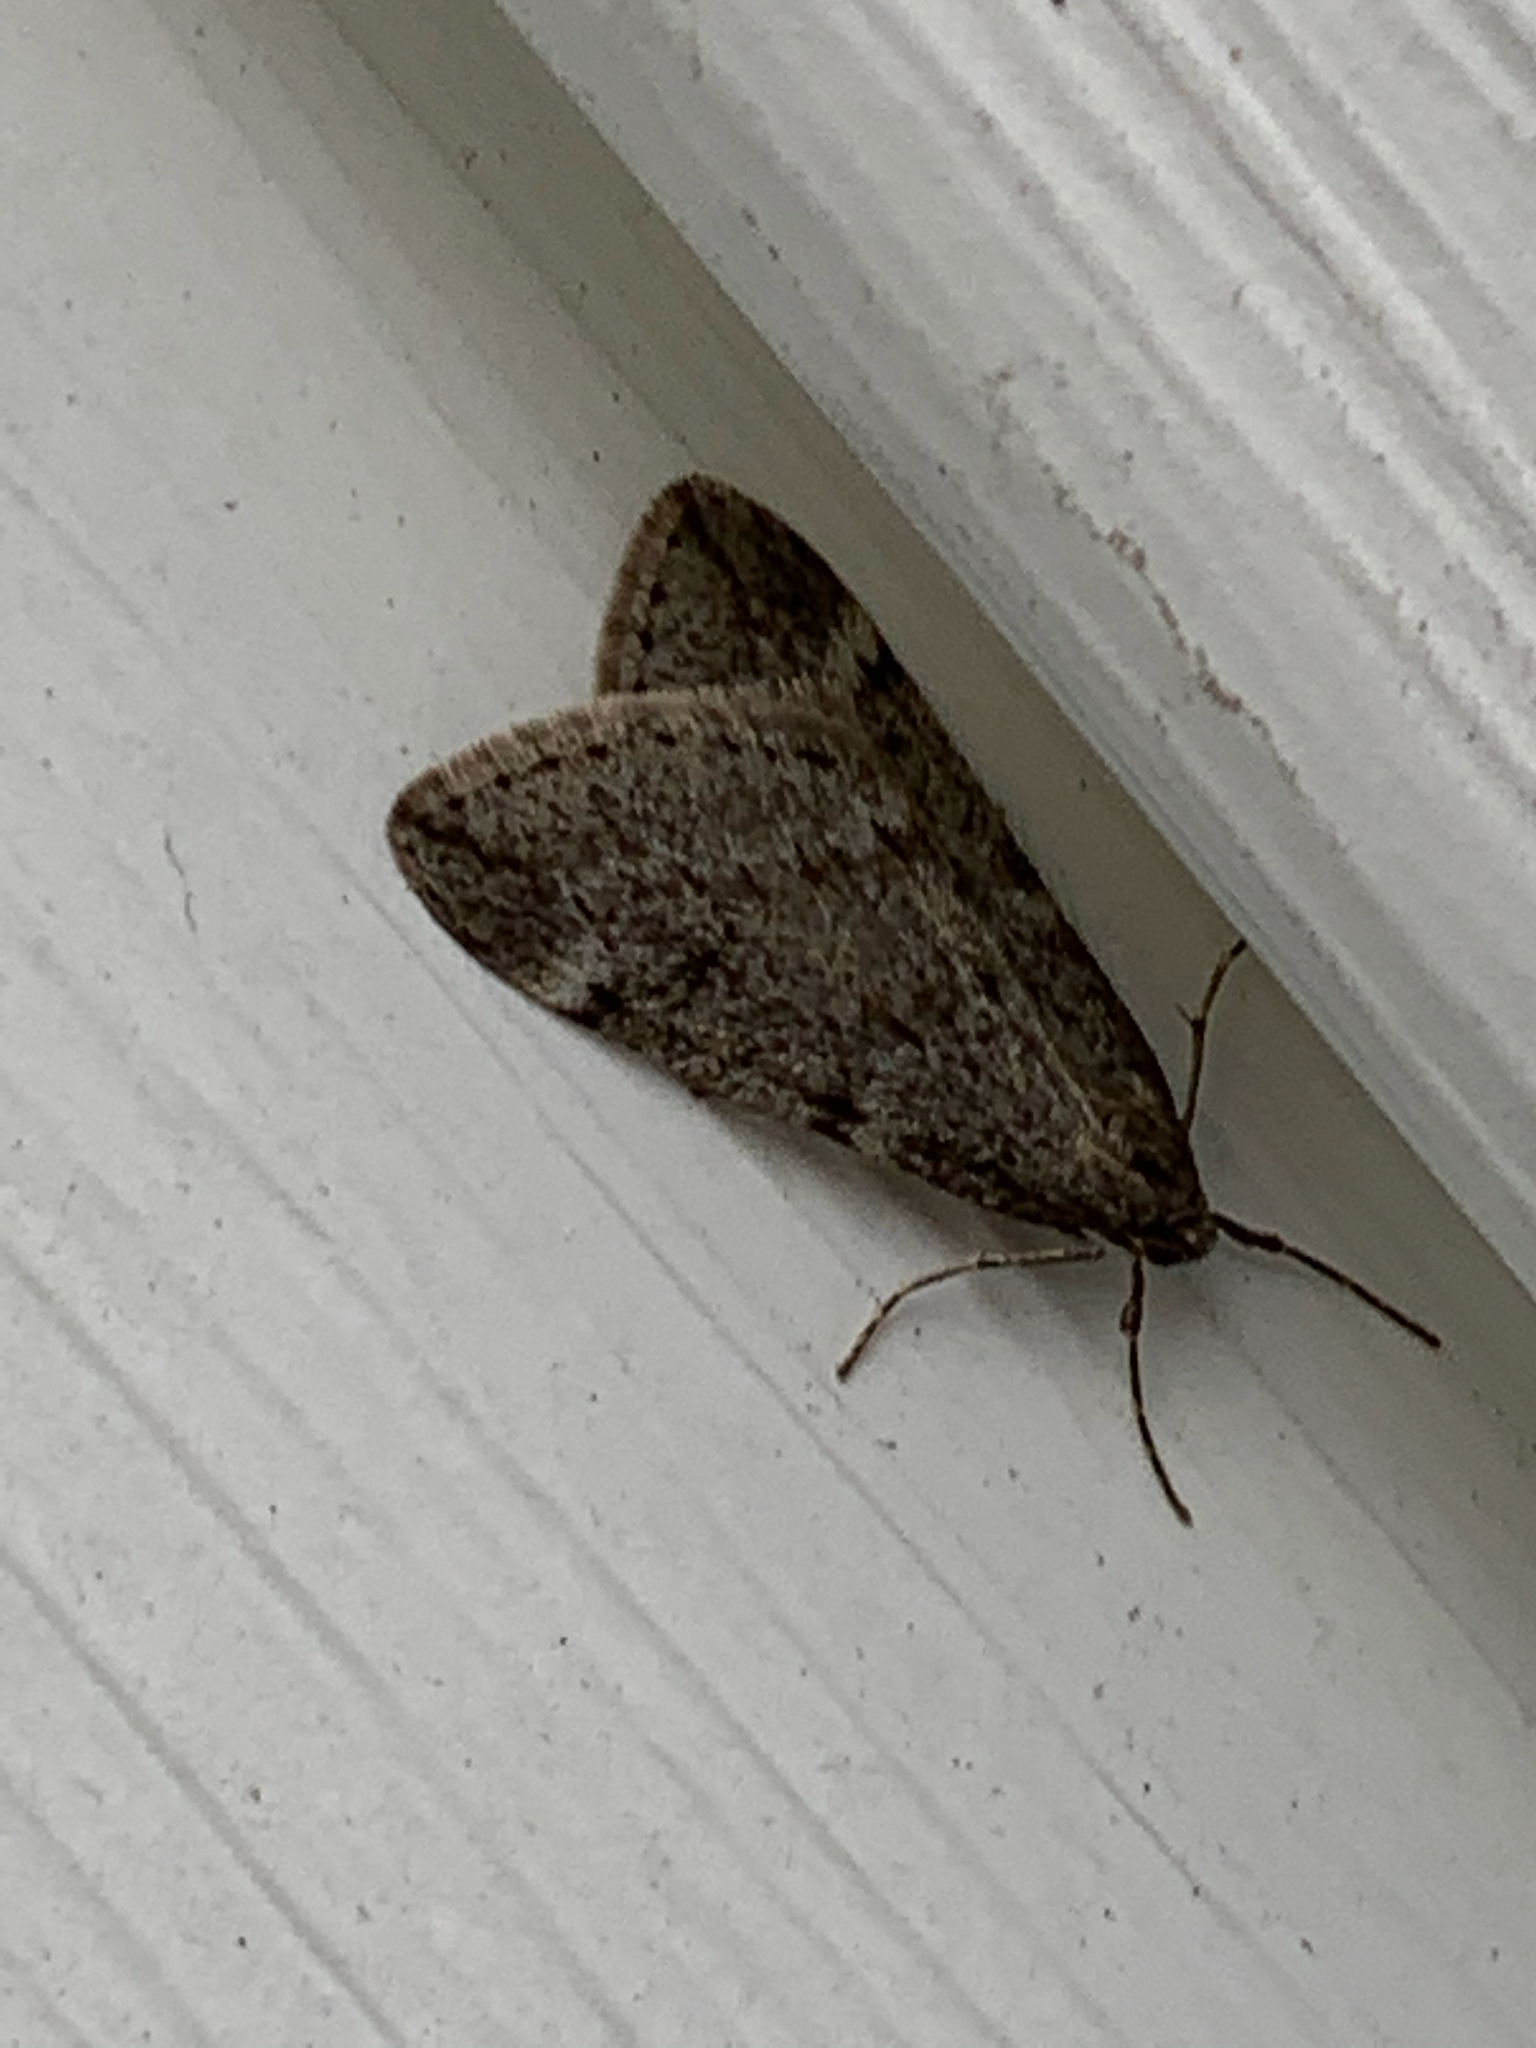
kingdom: Animalia
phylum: Arthropoda
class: Insecta
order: Lepidoptera
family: Geometridae
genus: Alsophila
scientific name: Alsophila pometaria
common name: Fall cankerworm
